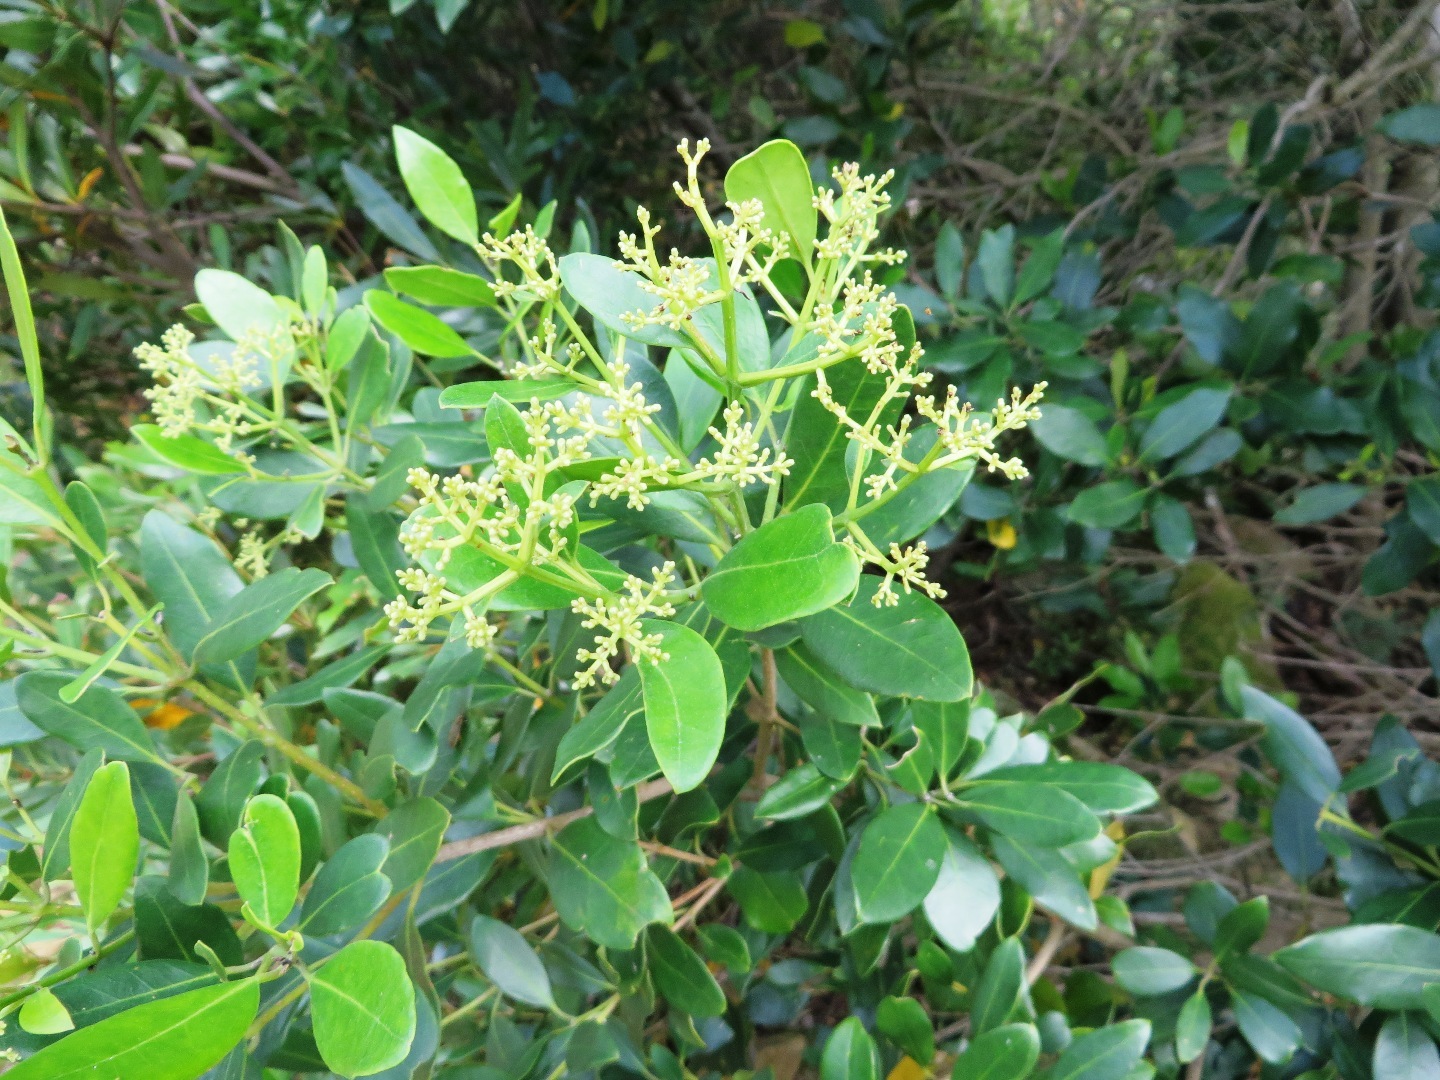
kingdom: Plantae
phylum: Tracheophyta
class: Magnoliopsida
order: Lamiales
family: Oleaceae
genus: Olea
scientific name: Olea capensis
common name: Black ironwood
